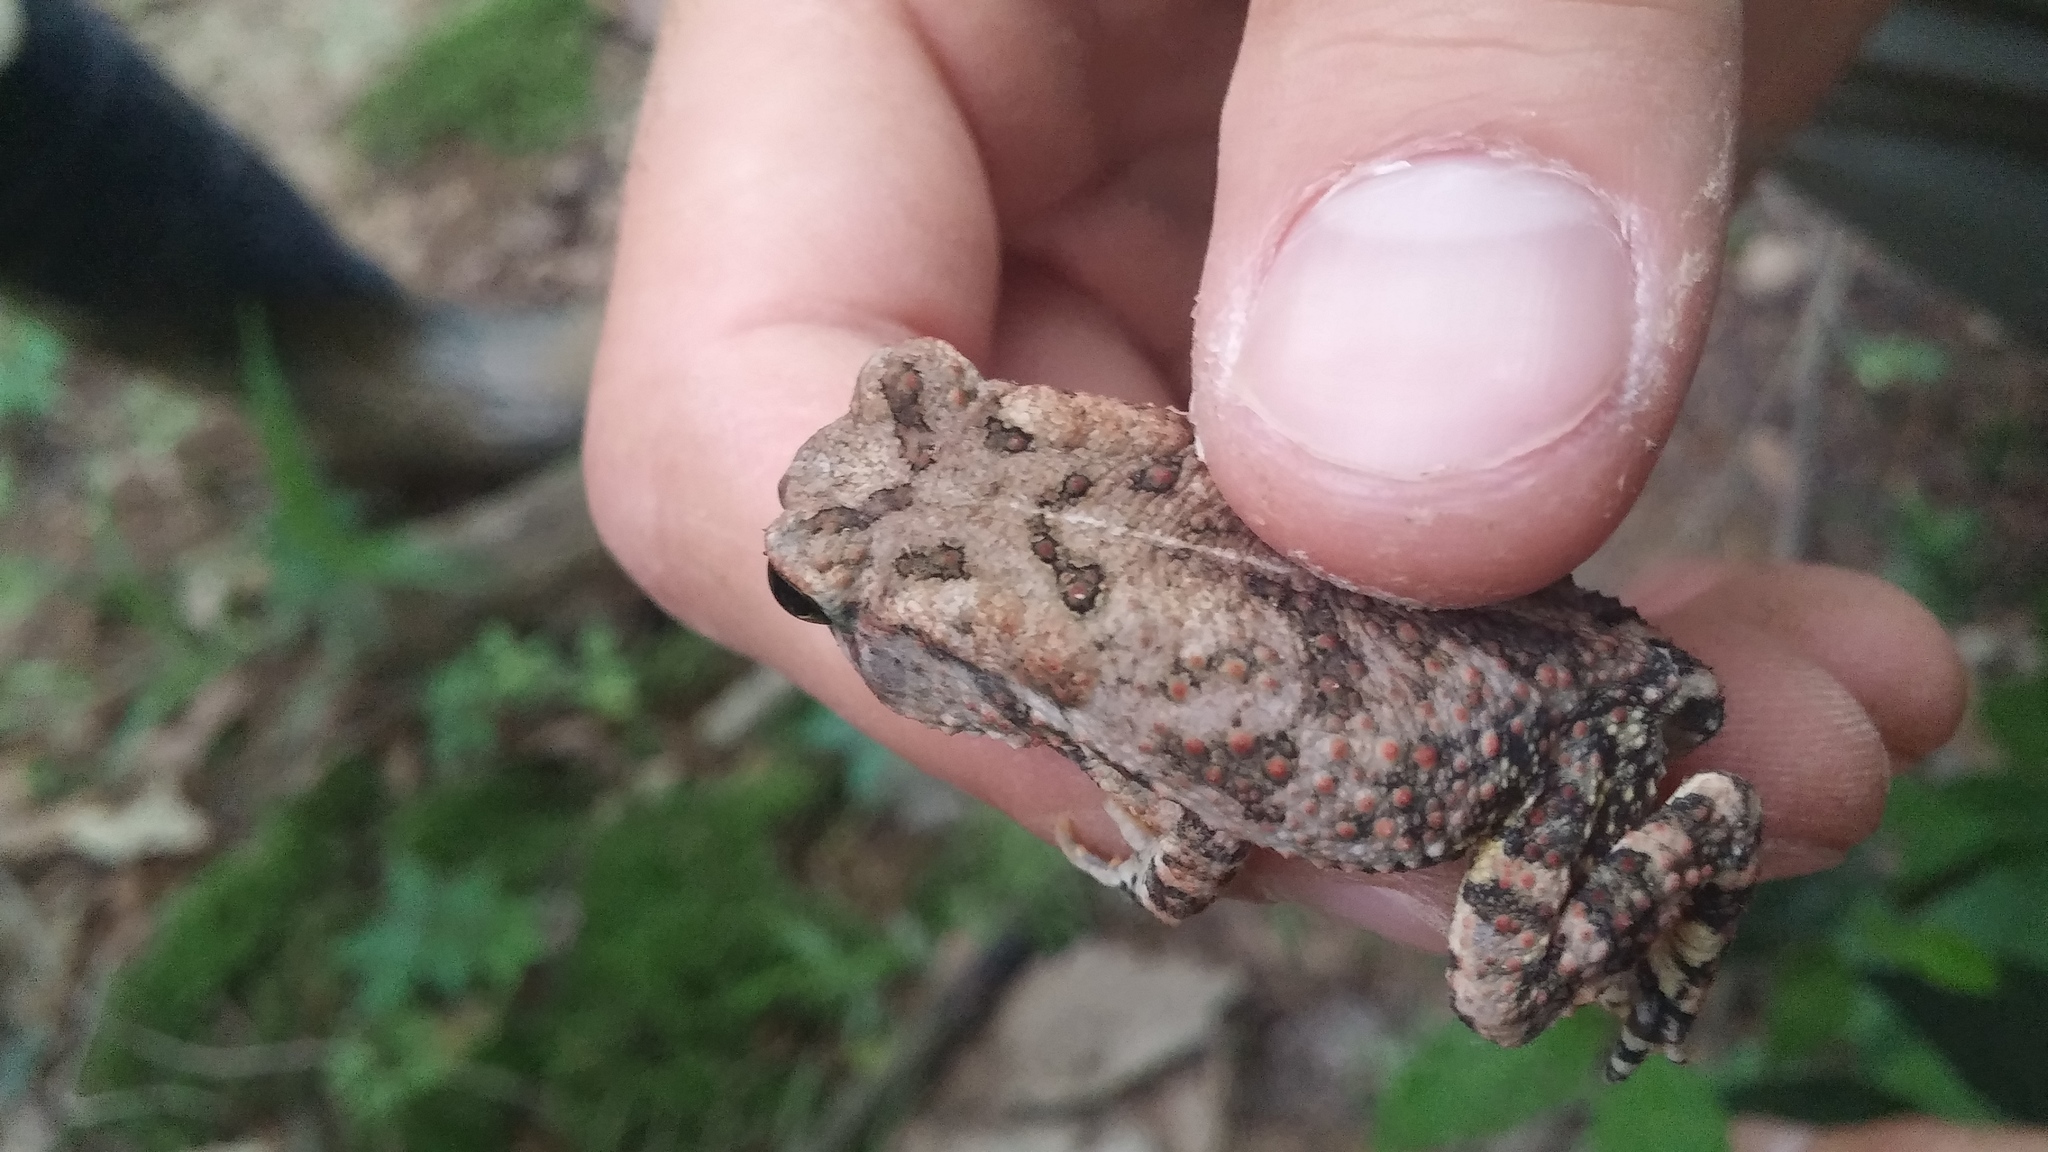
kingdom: Animalia
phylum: Chordata
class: Amphibia
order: Anura
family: Bufonidae
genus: Anaxyrus
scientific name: Anaxyrus fowleri
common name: Fowler's toad
